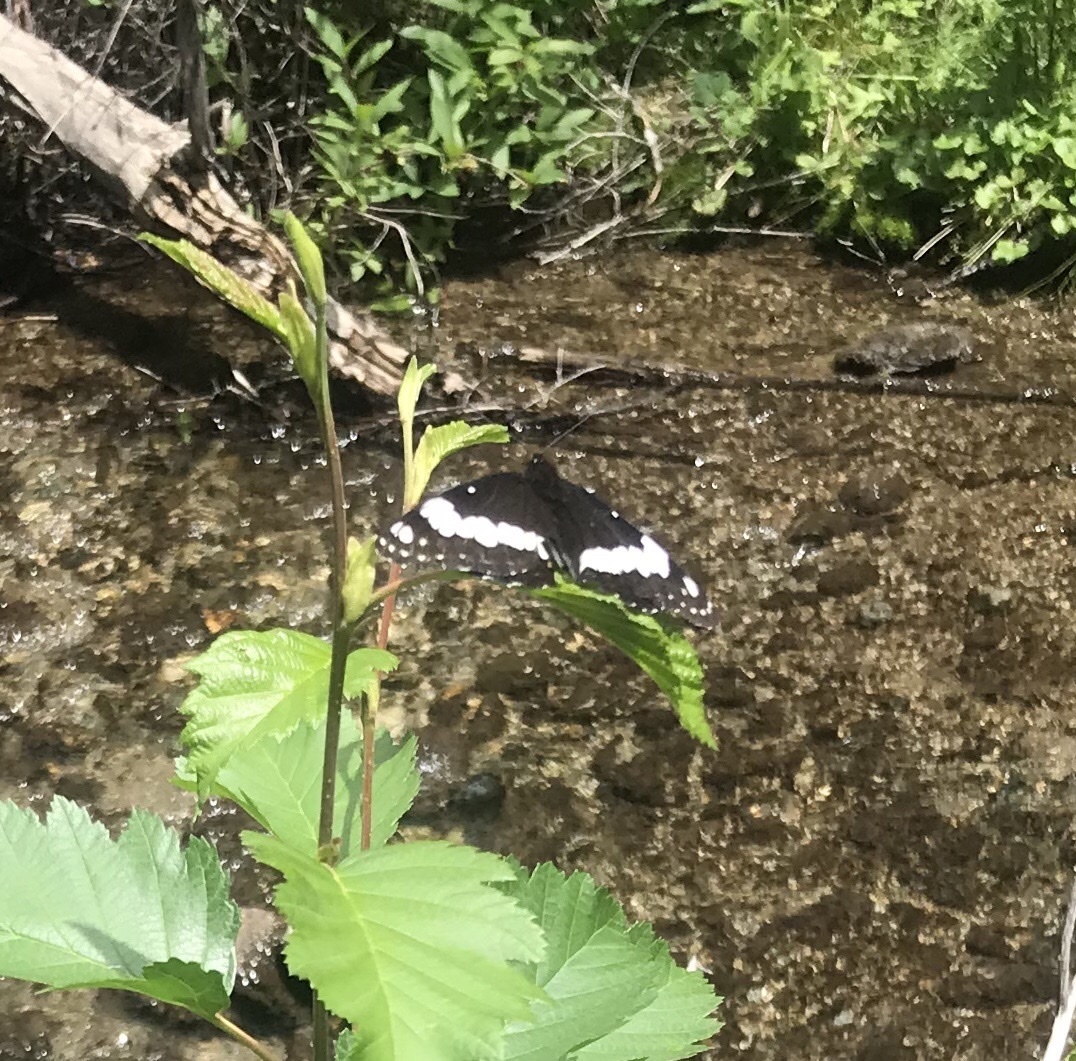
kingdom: Animalia
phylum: Arthropoda
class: Insecta
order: Lepidoptera
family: Nymphalidae
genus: Limenitis
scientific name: Limenitis weidemeyerii
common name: Weidemeyer's admiral
